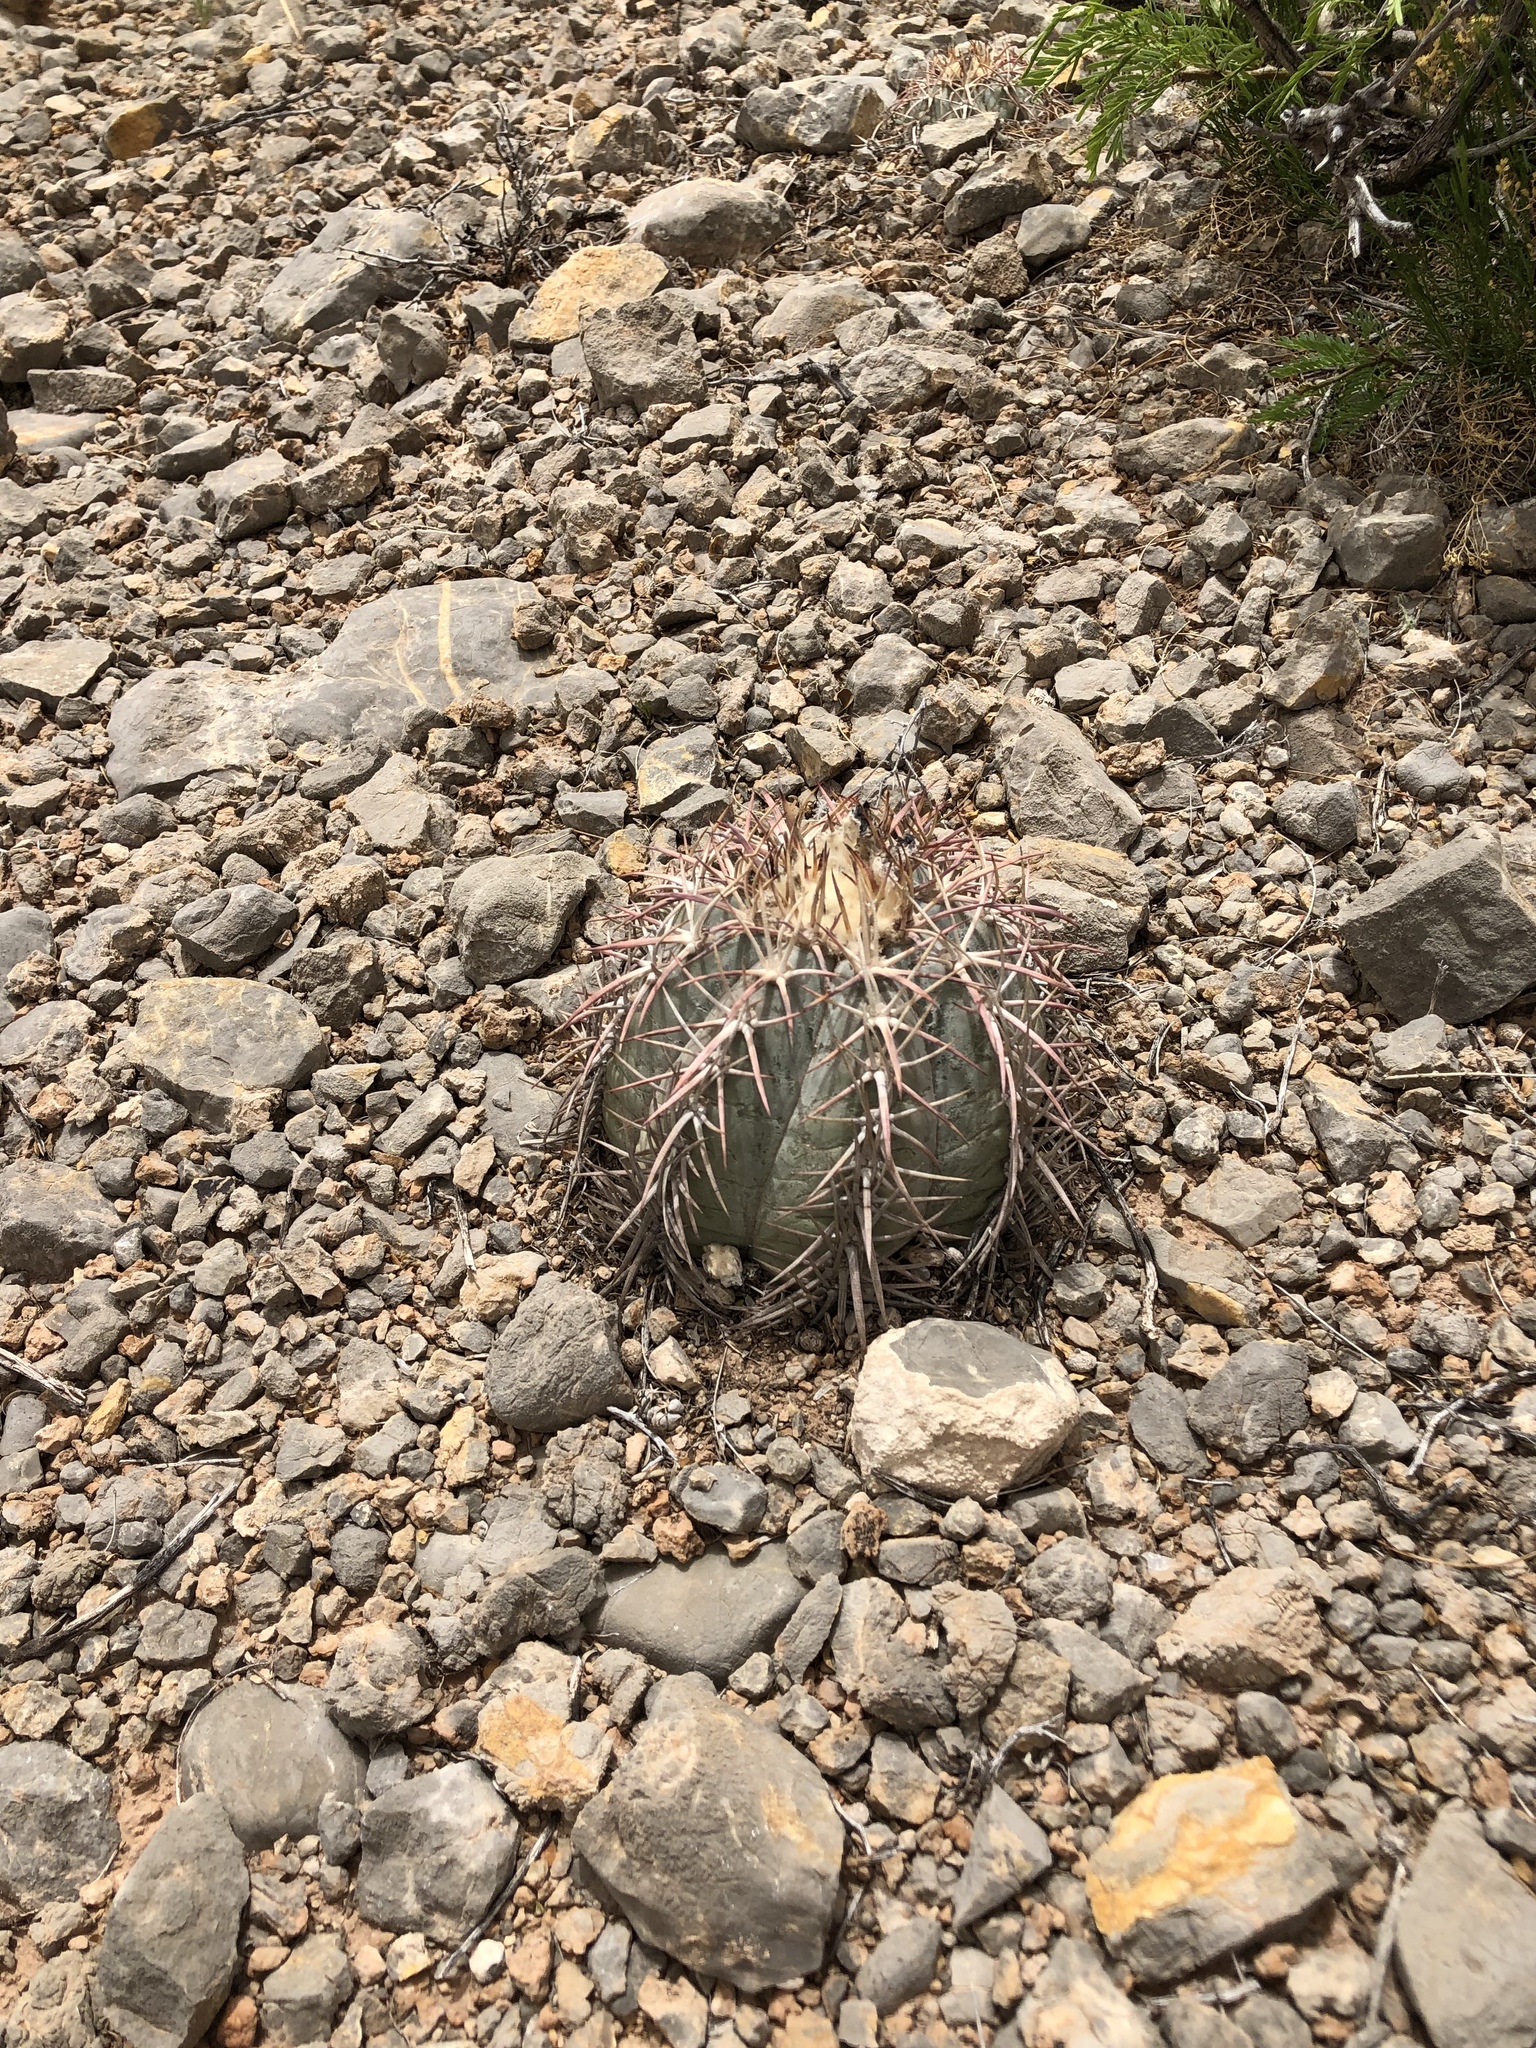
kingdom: Plantae
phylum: Tracheophyta
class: Magnoliopsida
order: Caryophyllales
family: Cactaceae
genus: Echinocactus
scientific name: Echinocactus horizonthalonius
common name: Devilshead
